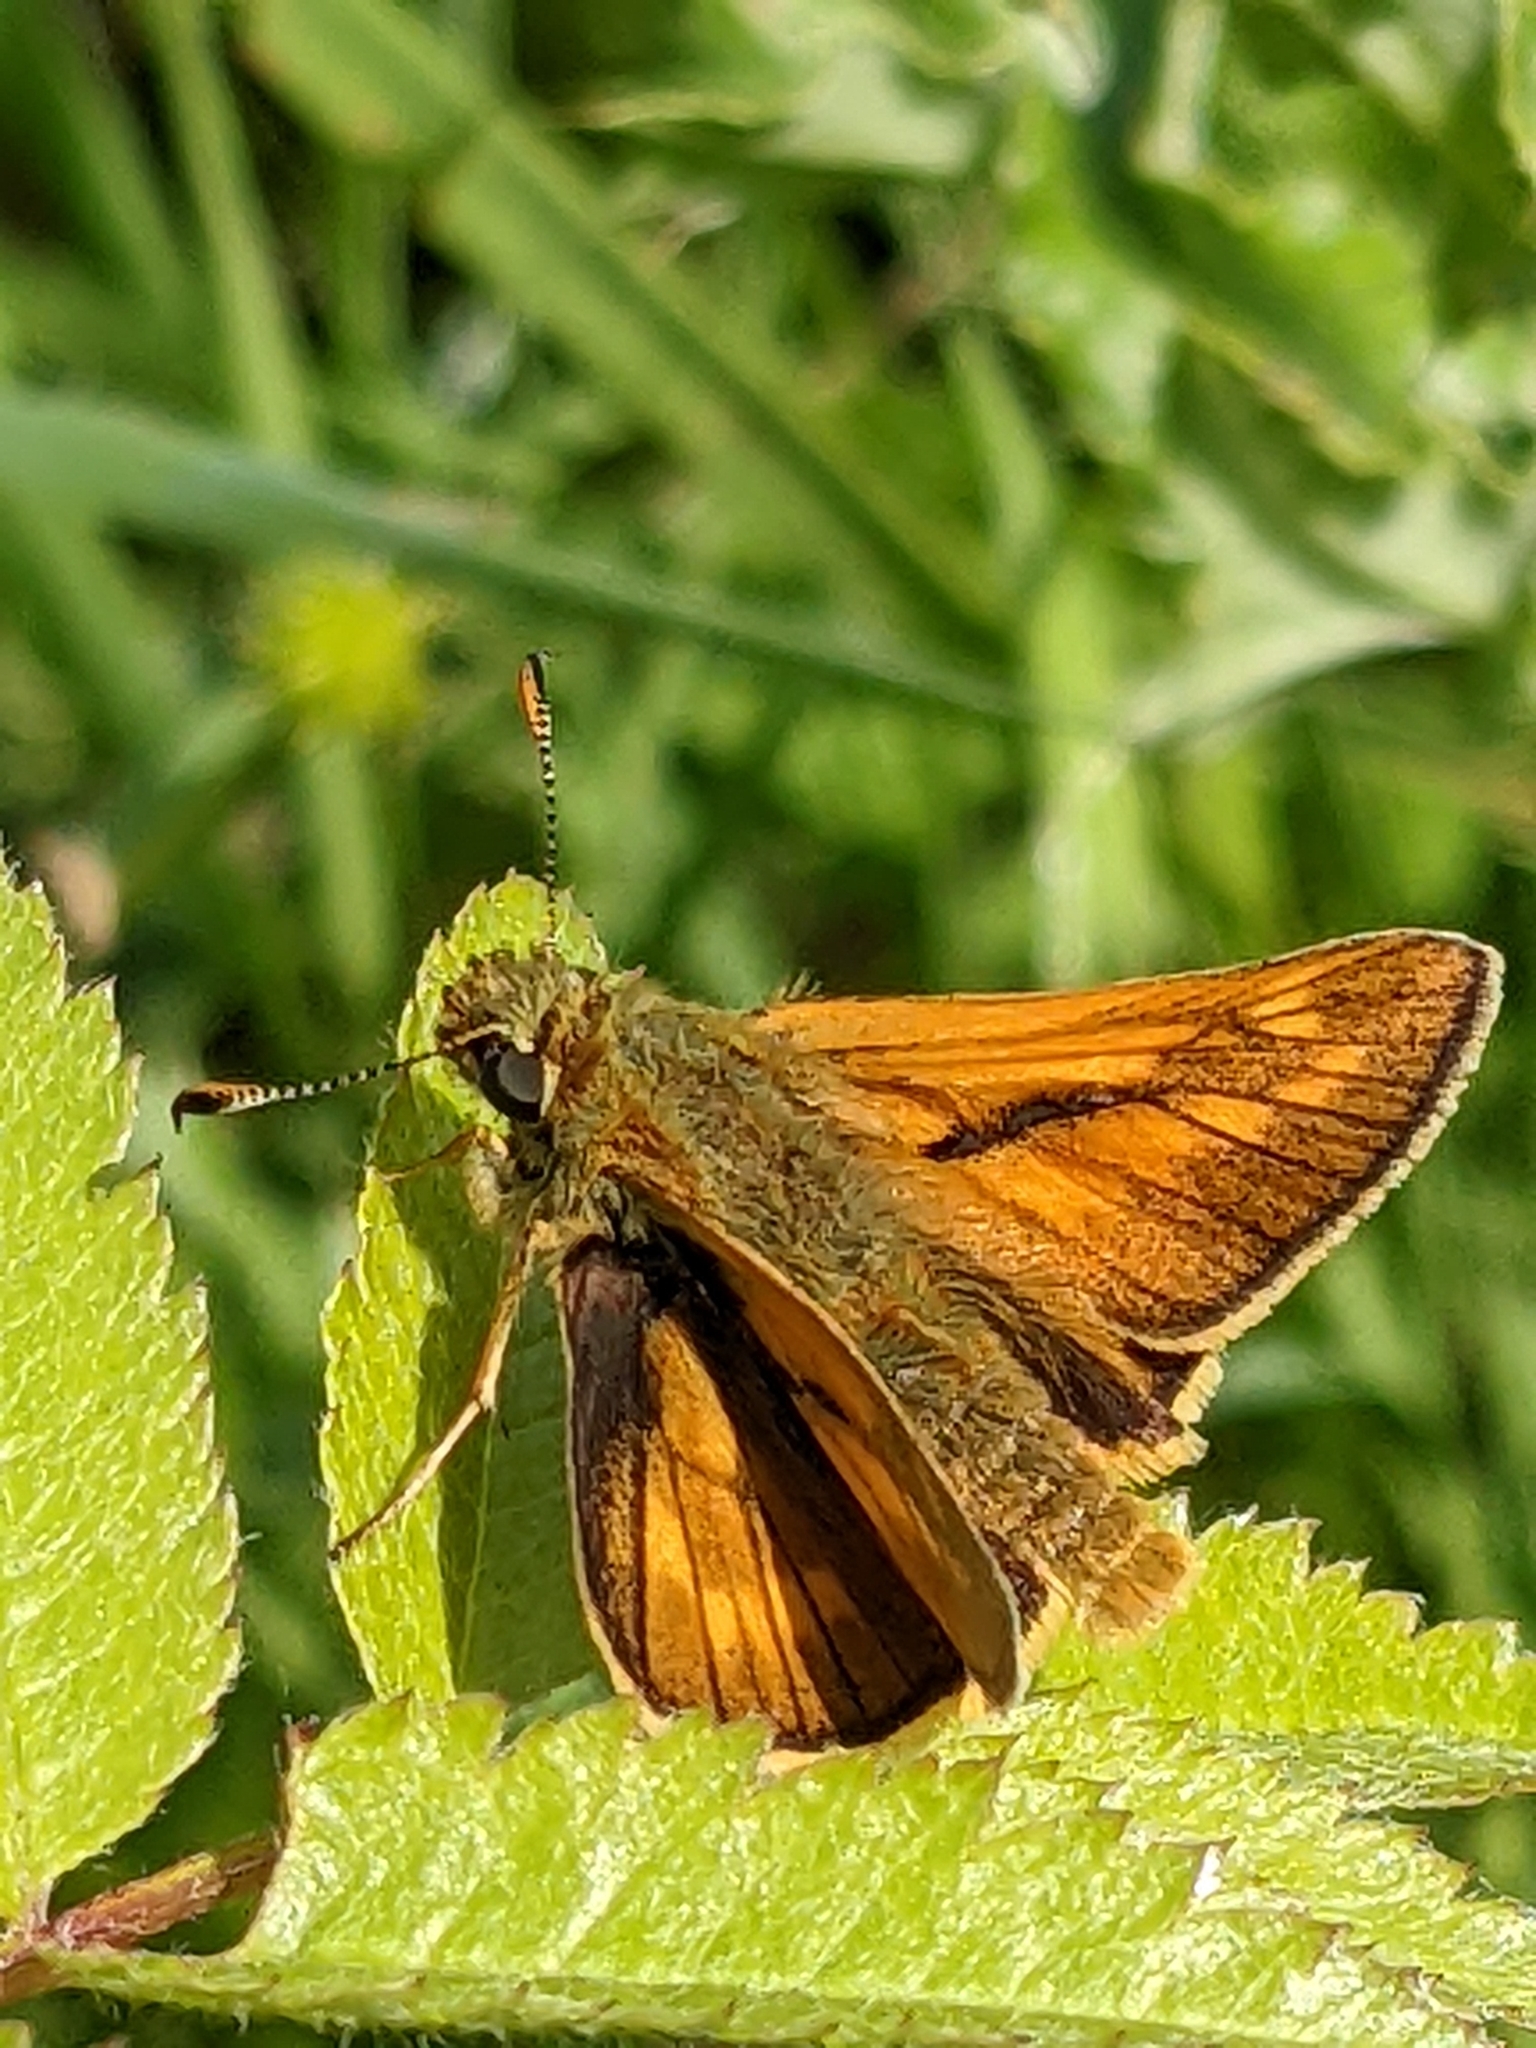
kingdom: Animalia
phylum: Arthropoda
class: Insecta
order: Lepidoptera
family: Hesperiidae
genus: Ochlodes
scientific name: Ochlodes venata
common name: Large skipper
